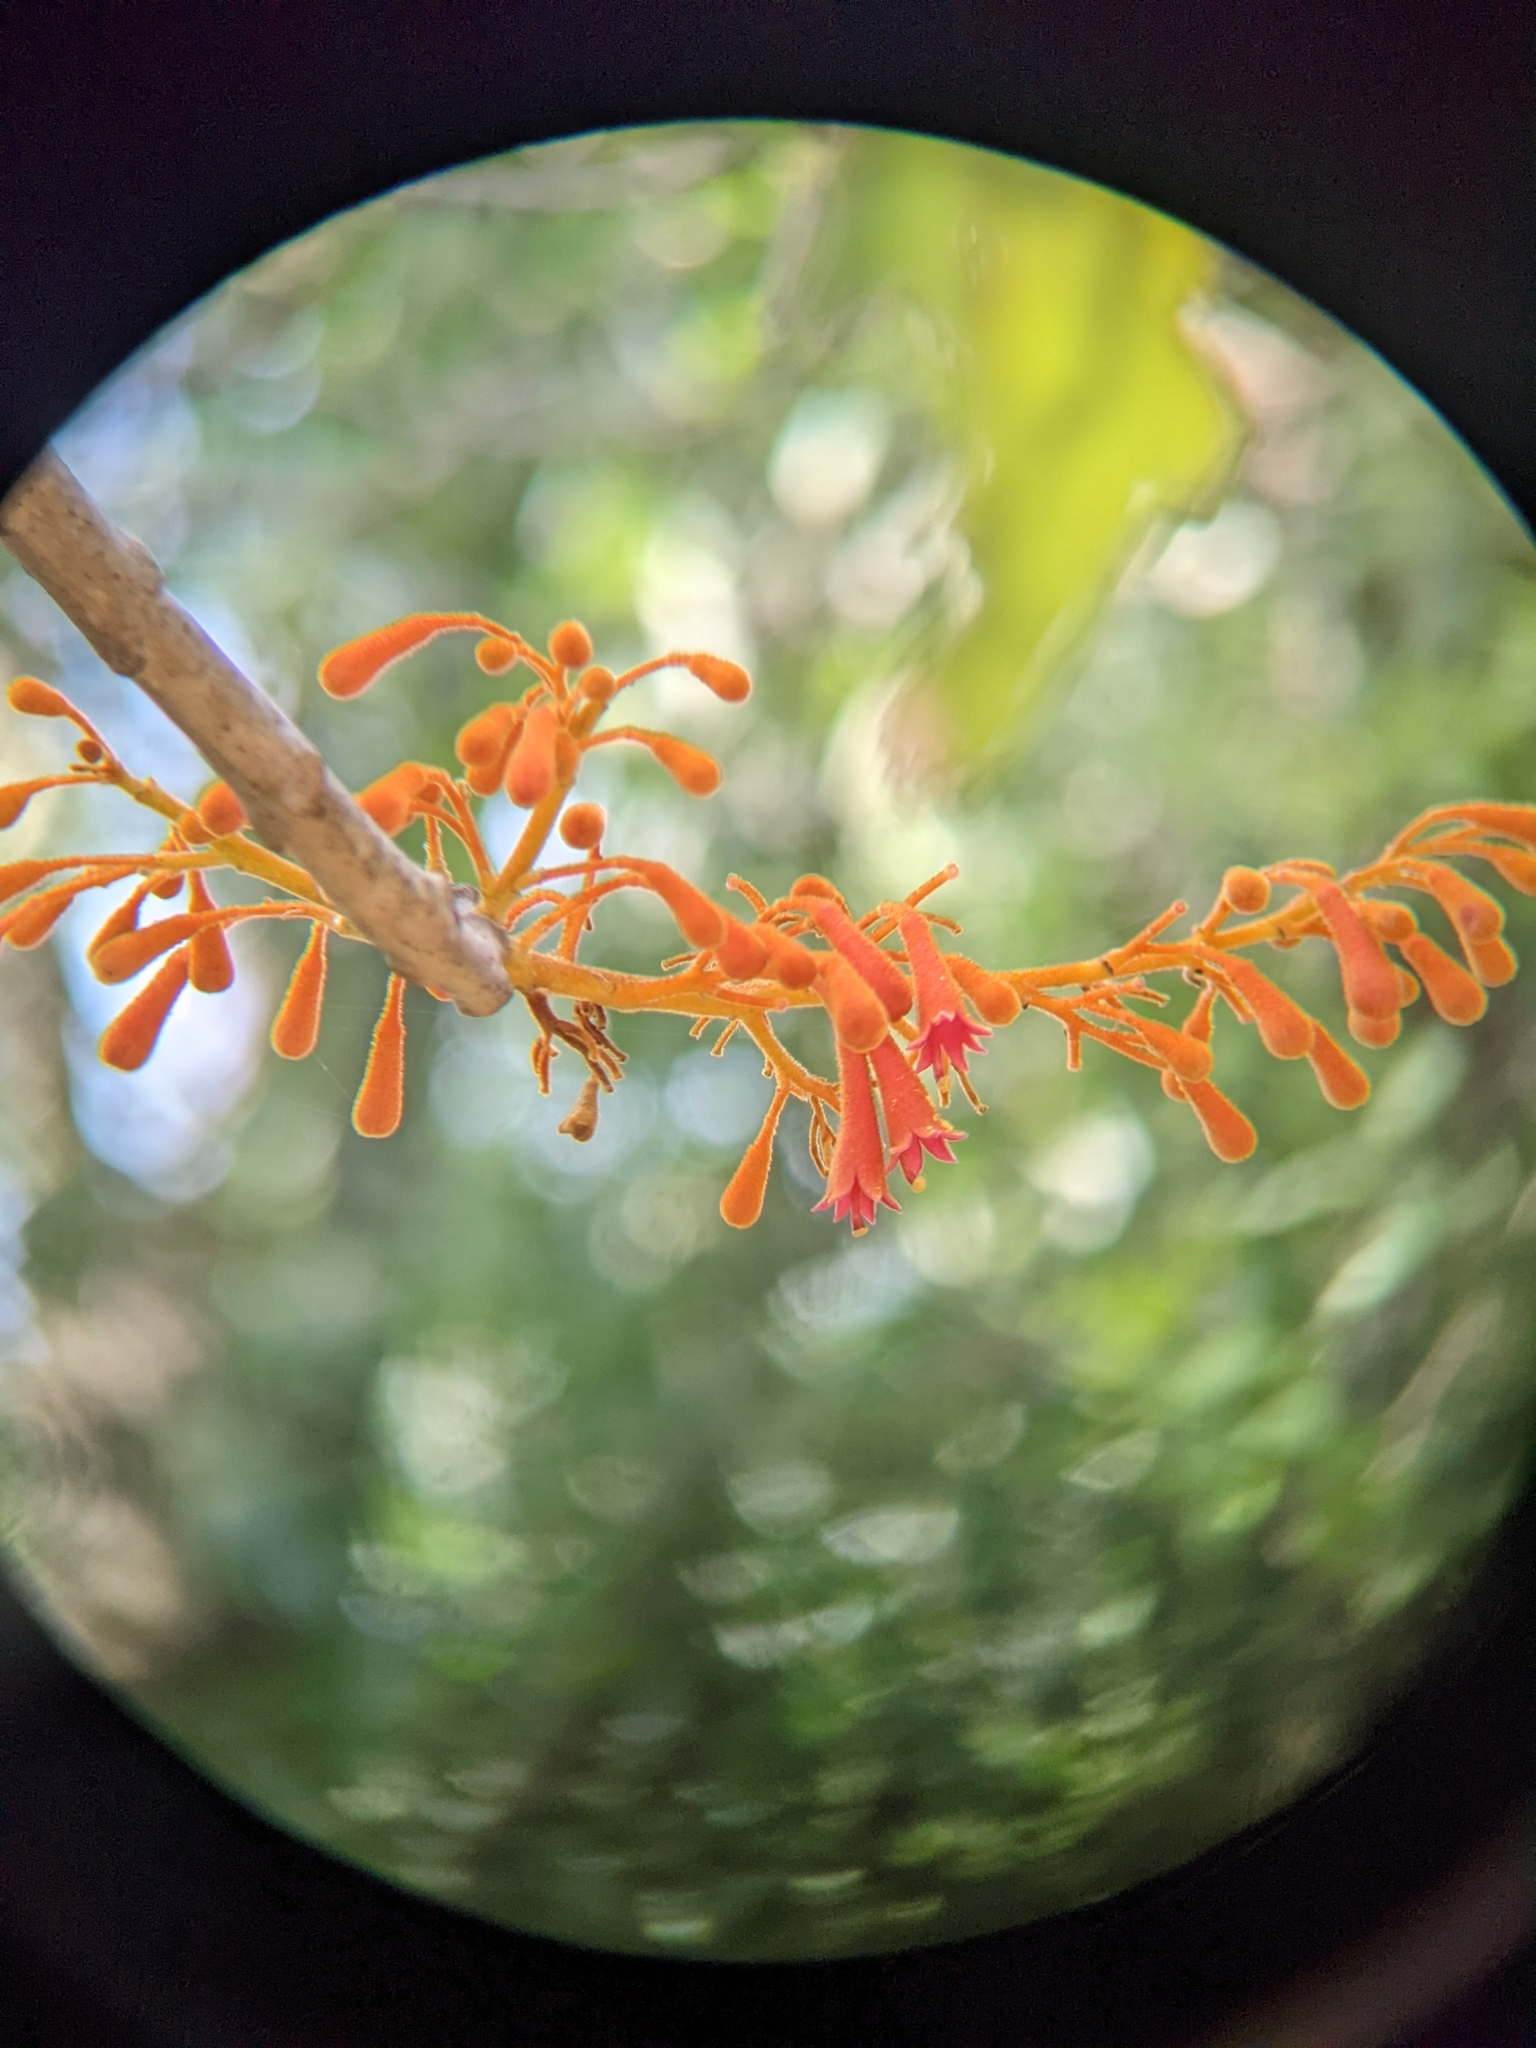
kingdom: Plantae
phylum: Tracheophyta
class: Magnoliopsida
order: Malvales
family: Malvaceae
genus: Firmiana
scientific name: Firmiana colorata
